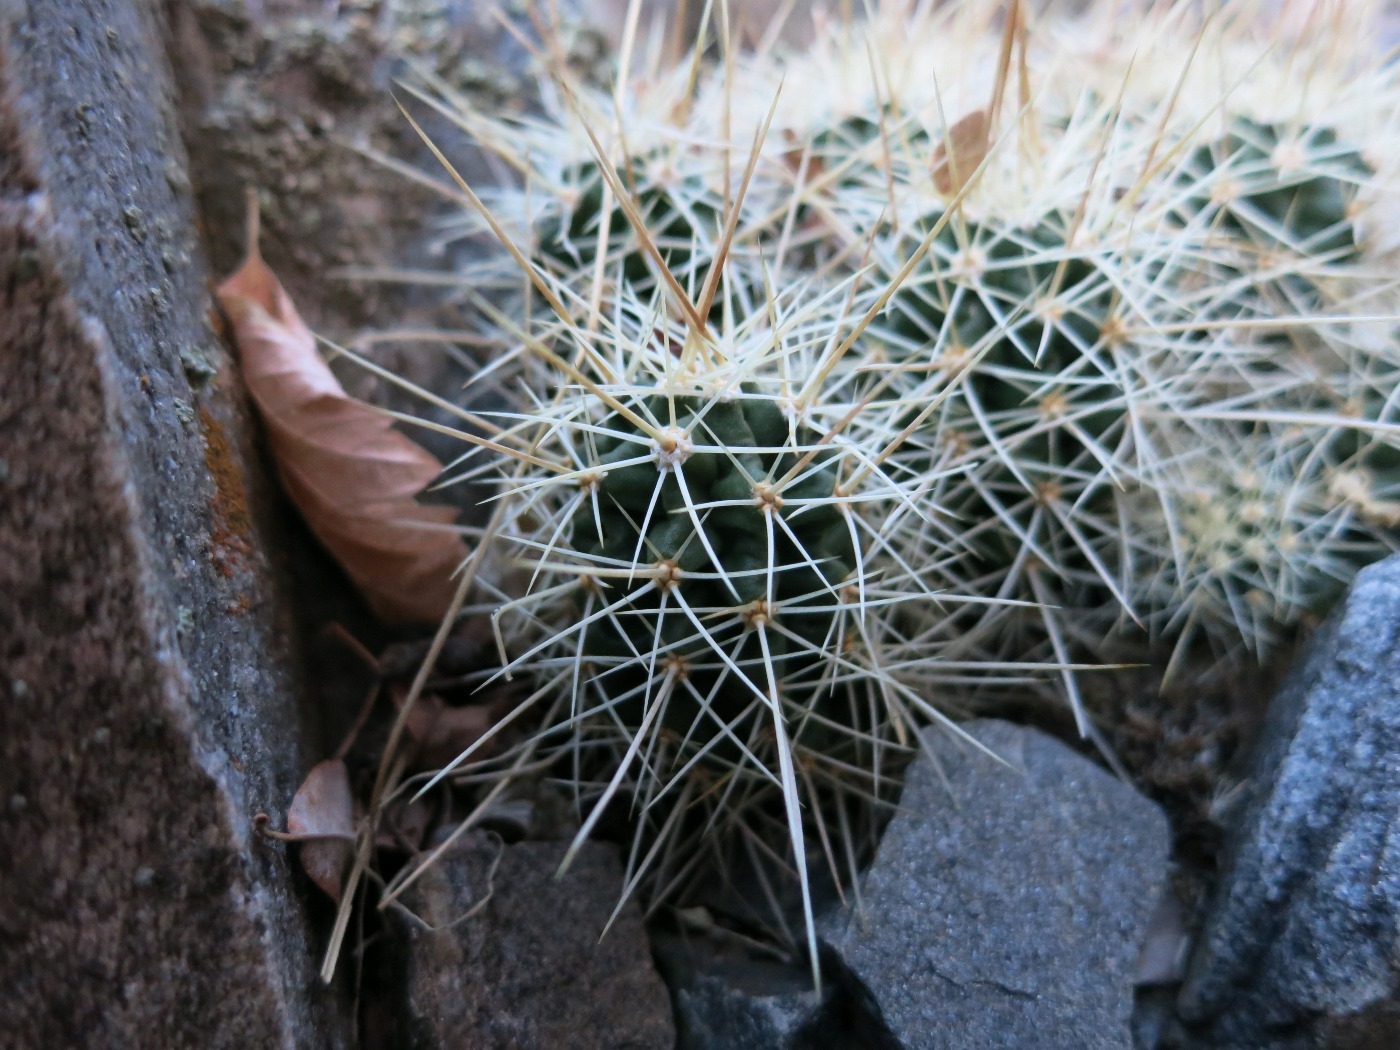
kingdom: Plantae
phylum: Tracheophyta
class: Magnoliopsida
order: Caryophyllales
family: Cactaceae
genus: Echinocereus
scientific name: Echinocereus triglochidiatus
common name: Claretcup hedgehog
